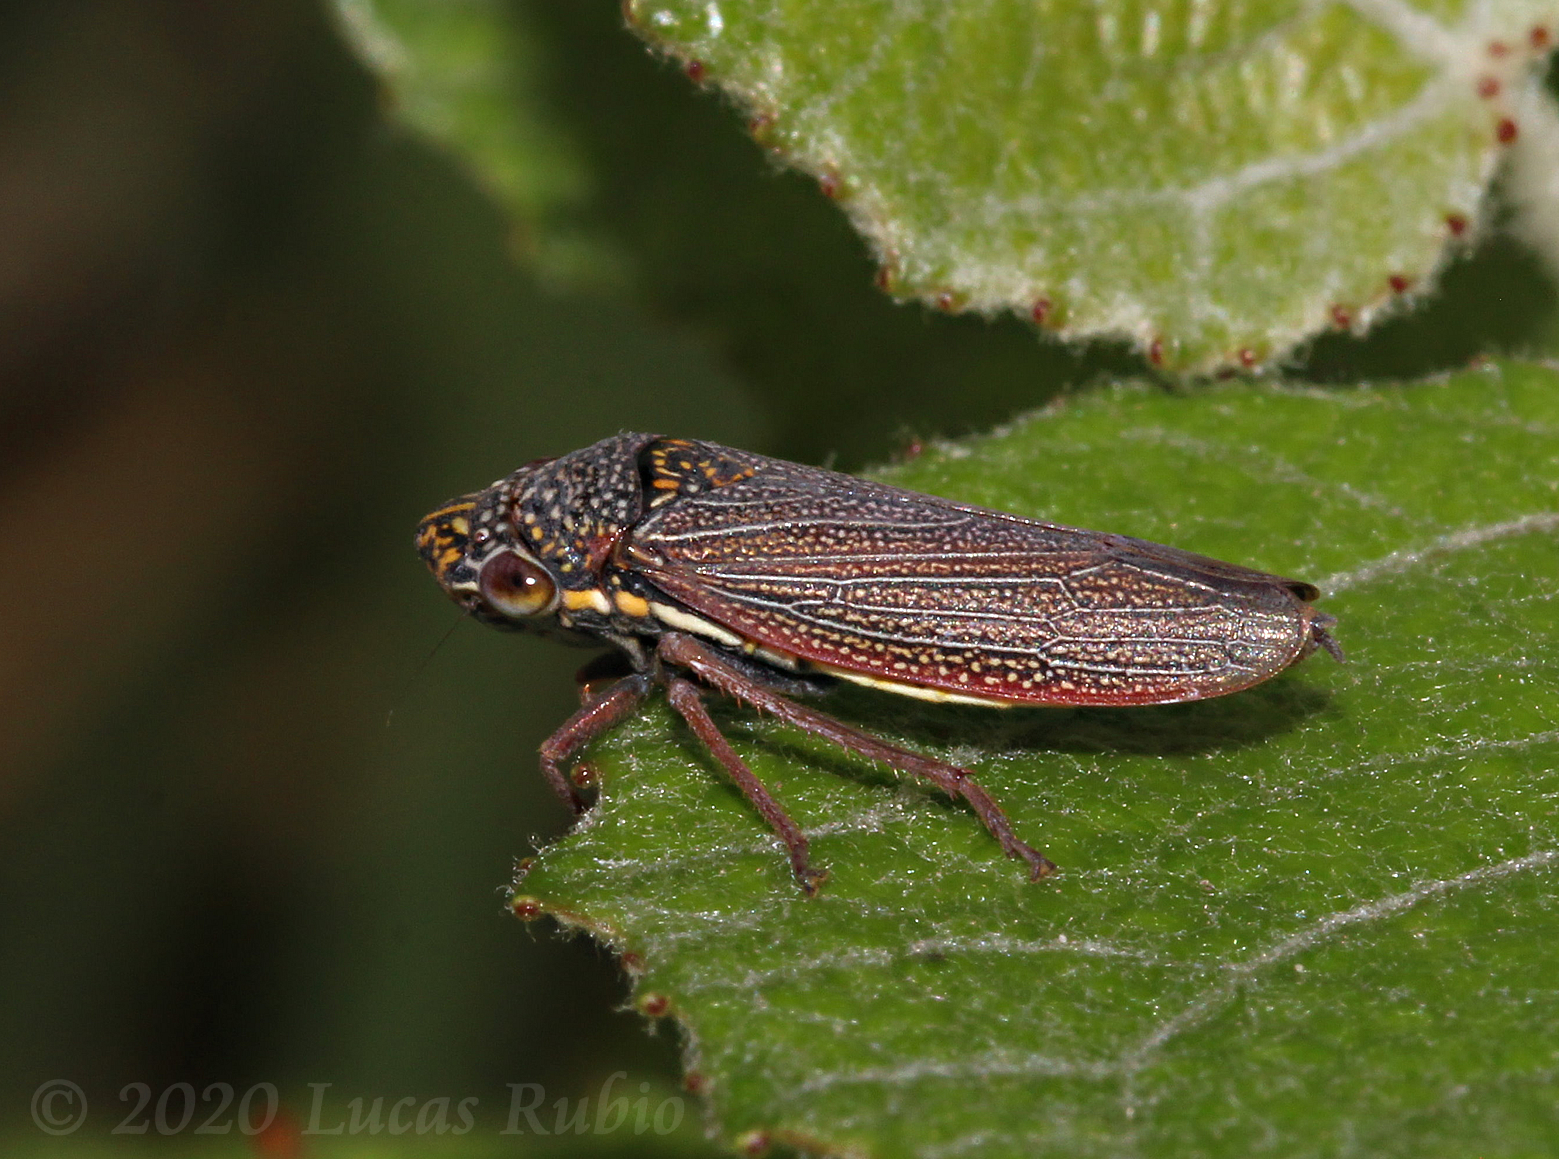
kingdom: Animalia
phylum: Arthropoda
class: Insecta
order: Hemiptera
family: Cicadellidae
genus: Tapajosa
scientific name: Tapajosa rubromarginata
